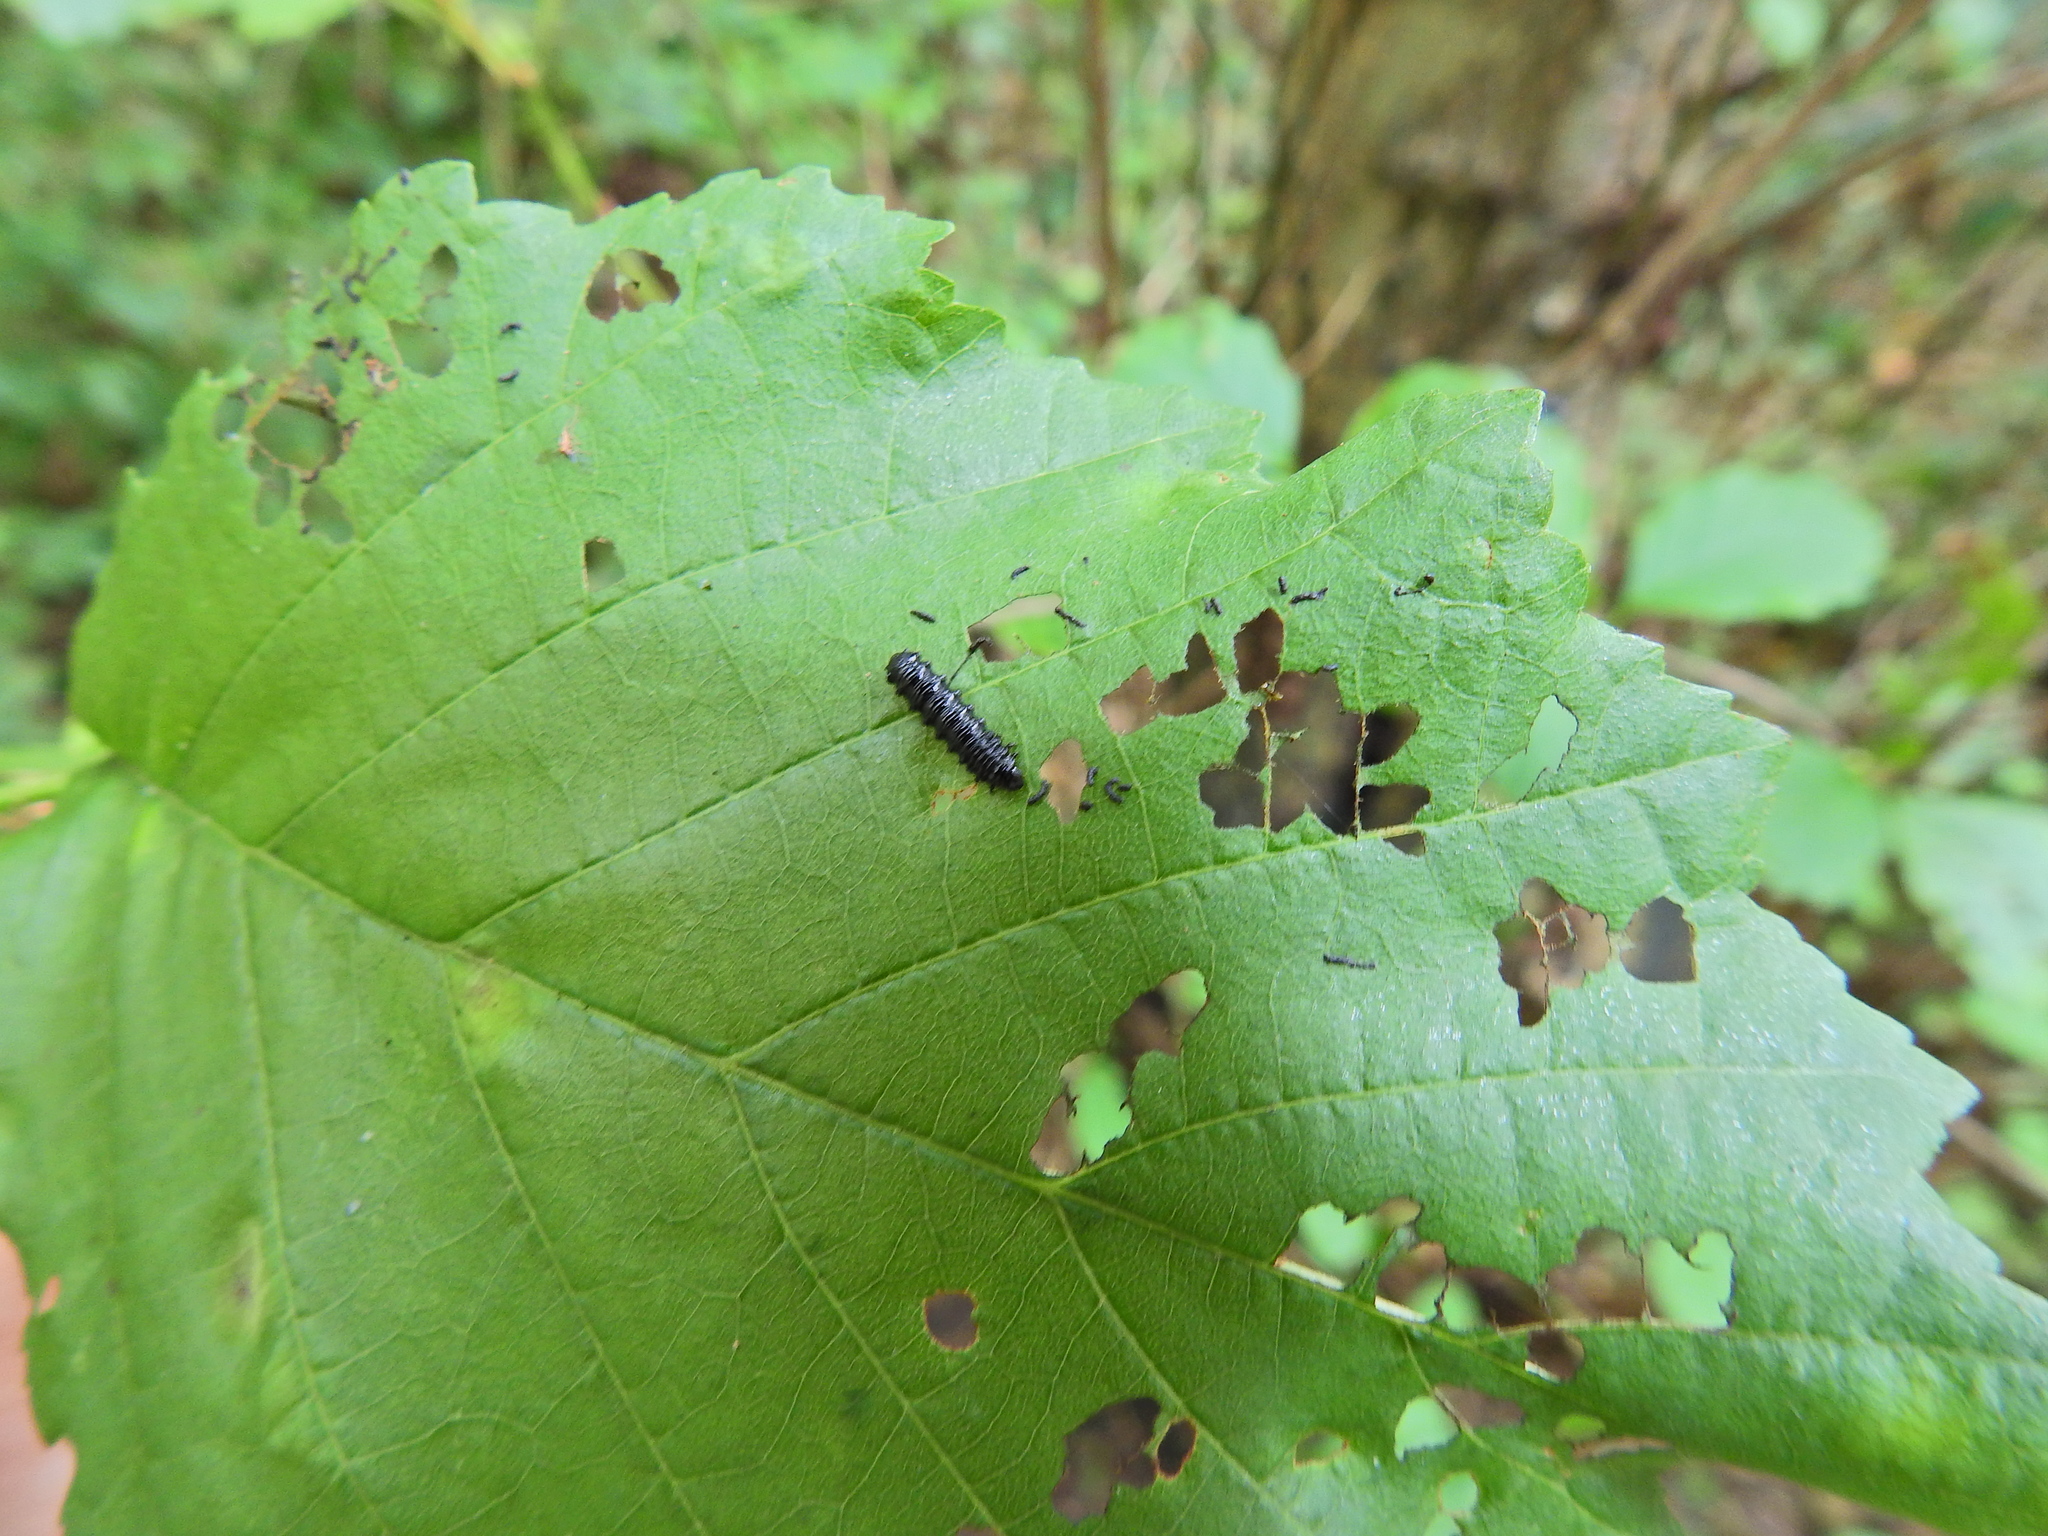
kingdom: Animalia
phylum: Arthropoda
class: Insecta
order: Coleoptera
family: Chrysomelidae
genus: Agelastica
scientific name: Agelastica alni
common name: Alder leaf beetle
